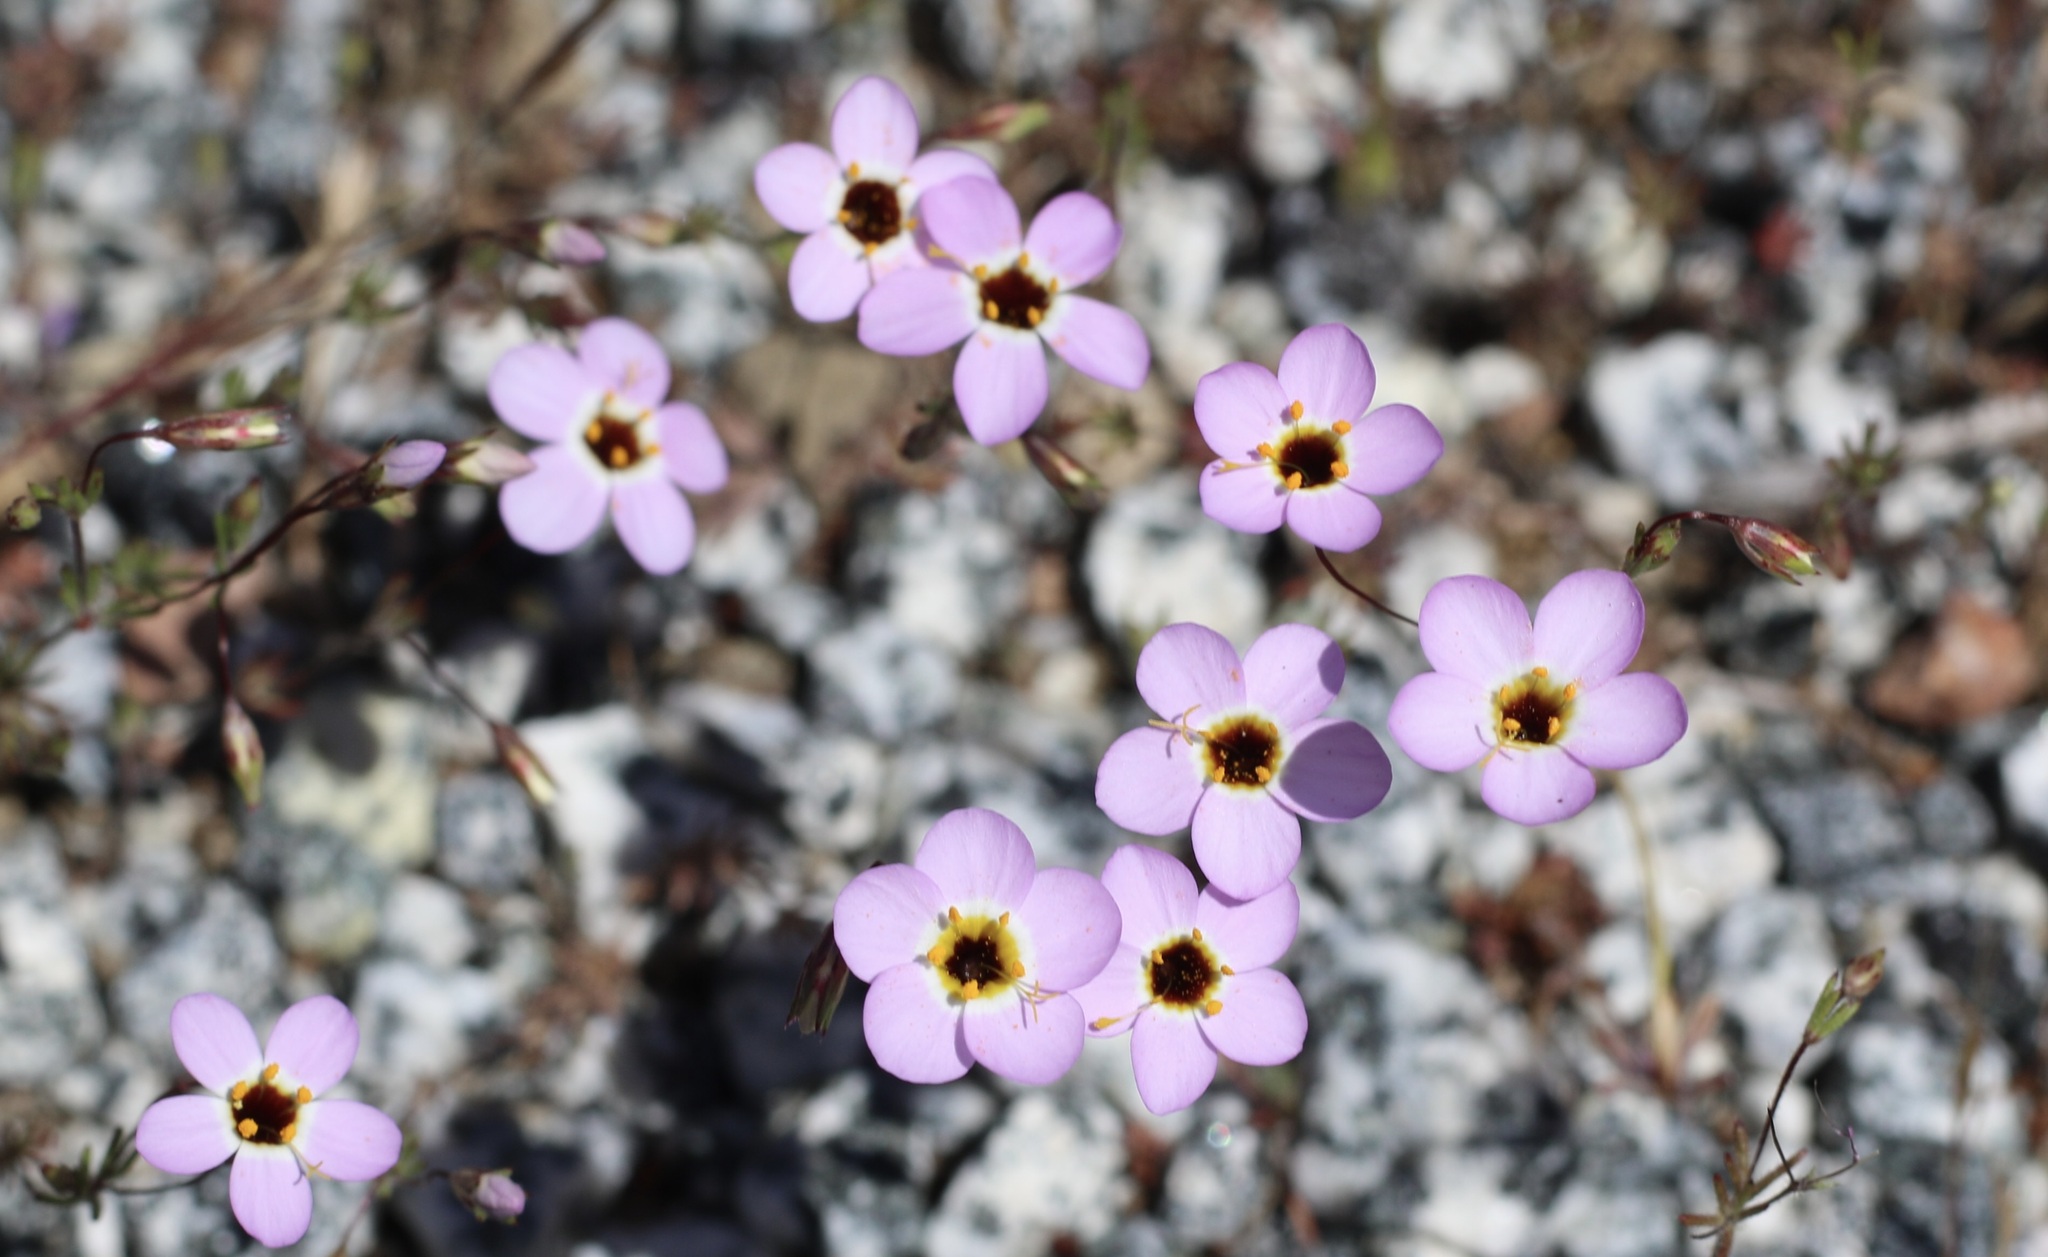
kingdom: Plantae
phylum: Tracheophyta
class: Magnoliopsida
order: Ericales
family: Polemoniaceae
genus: Leptosiphon
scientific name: Leptosiphon ambiguus
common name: Serpentine linanthus
